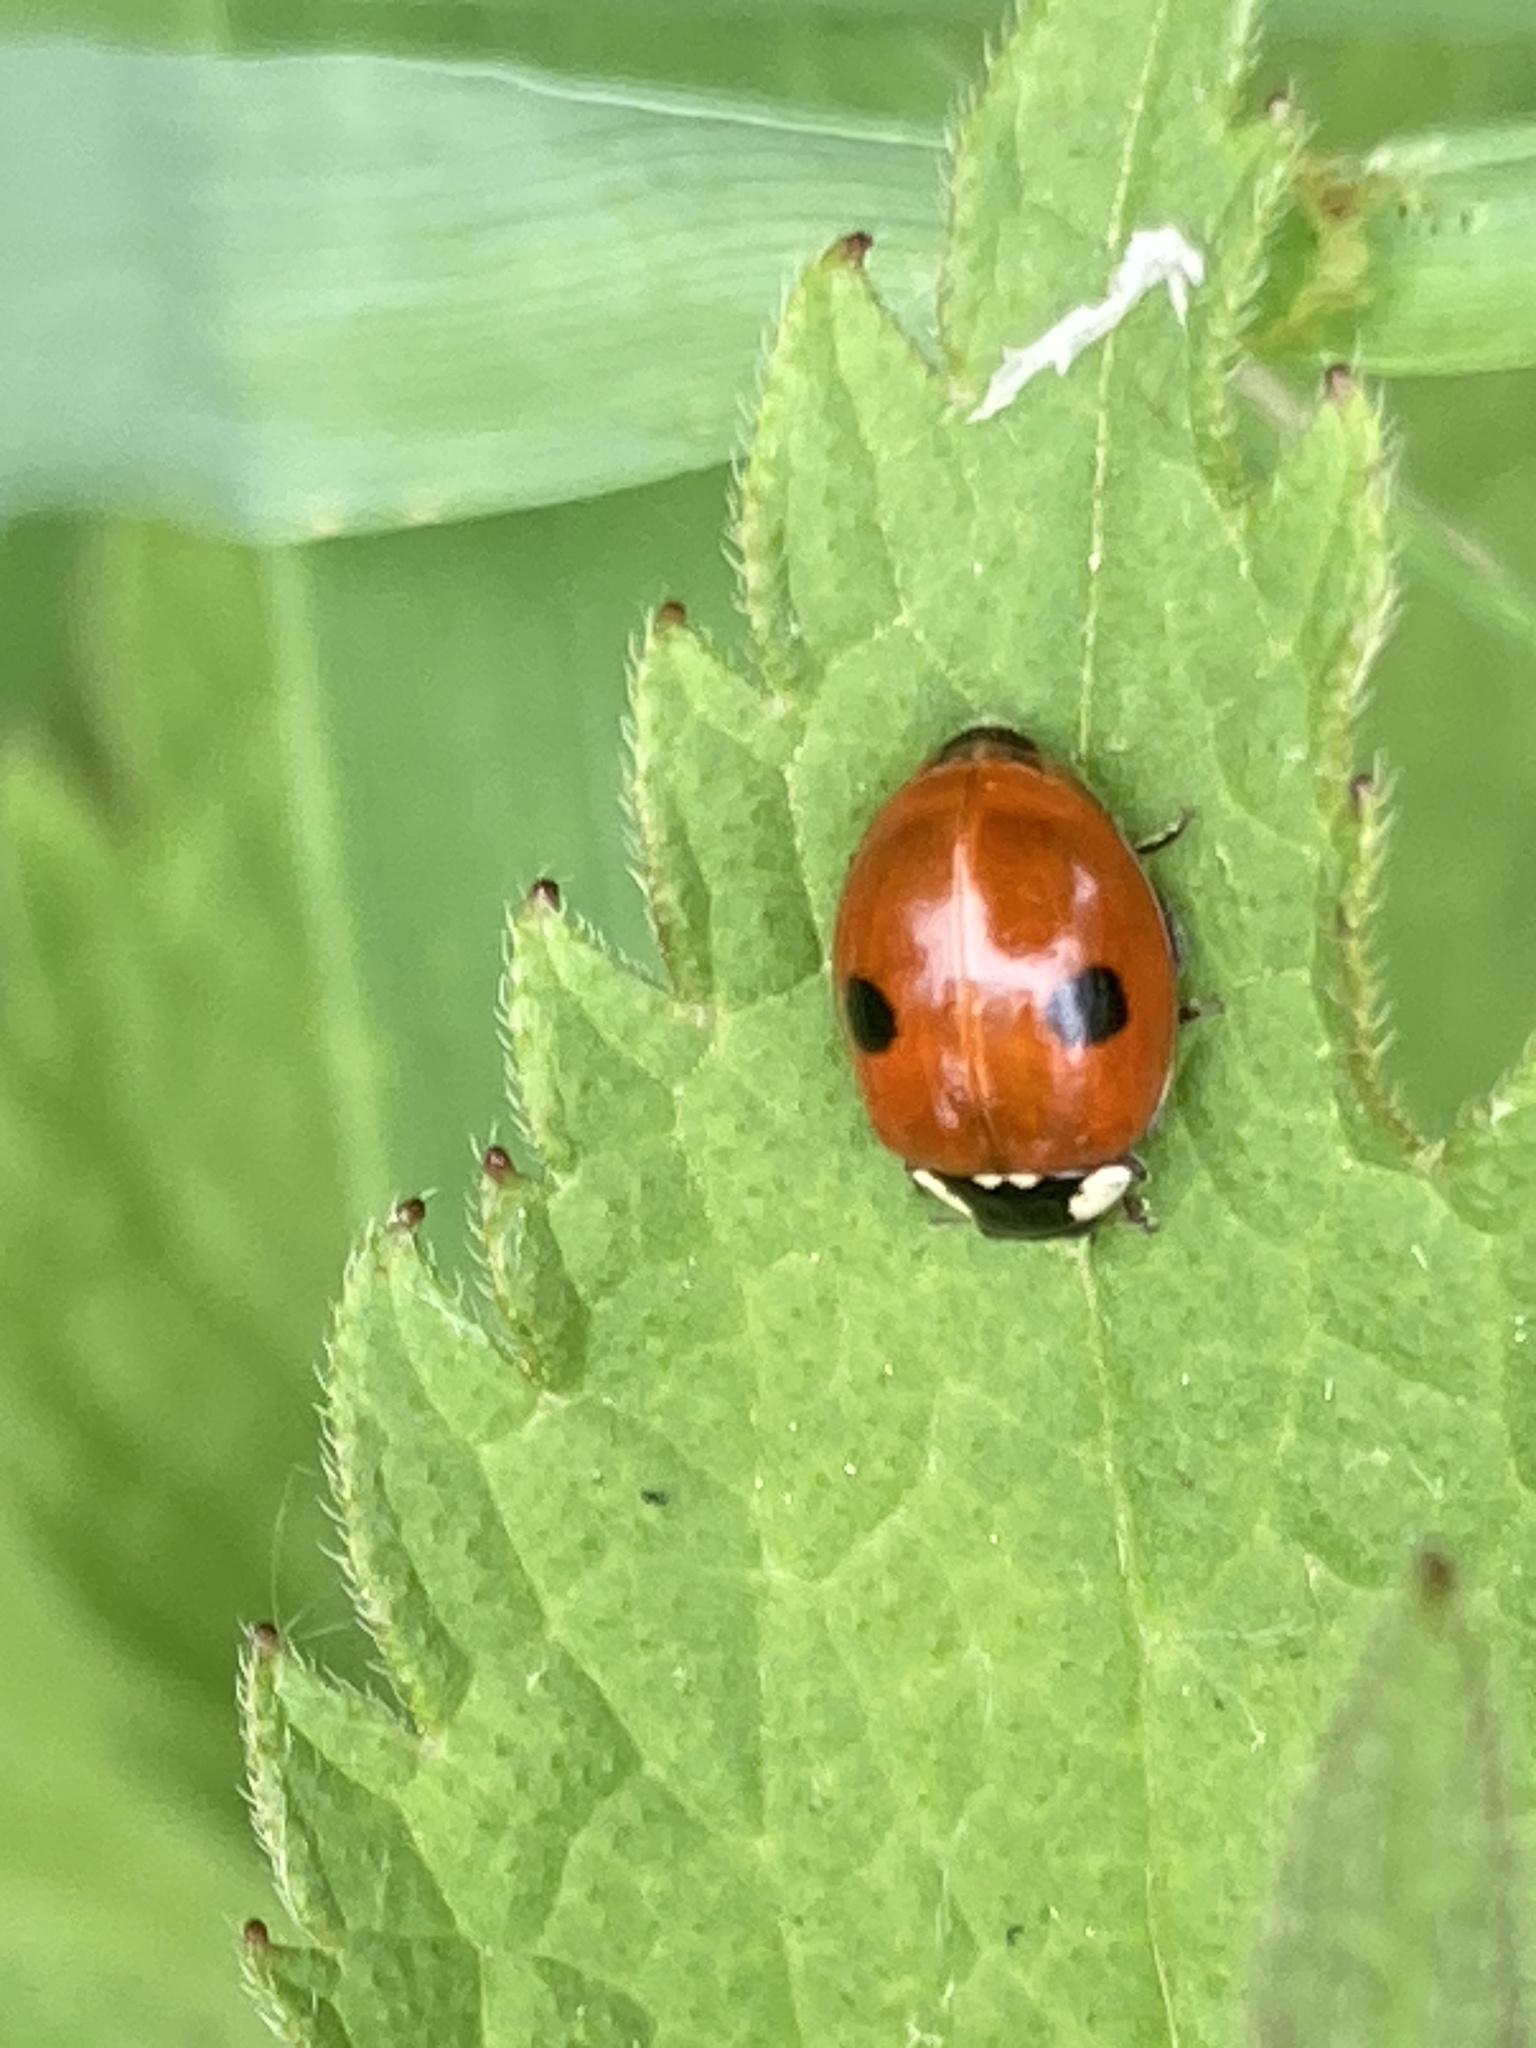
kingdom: Animalia
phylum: Arthropoda
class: Insecta
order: Coleoptera
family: Coccinellidae
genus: Adalia
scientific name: Adalia bipunctata
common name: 2-spot ladybird
